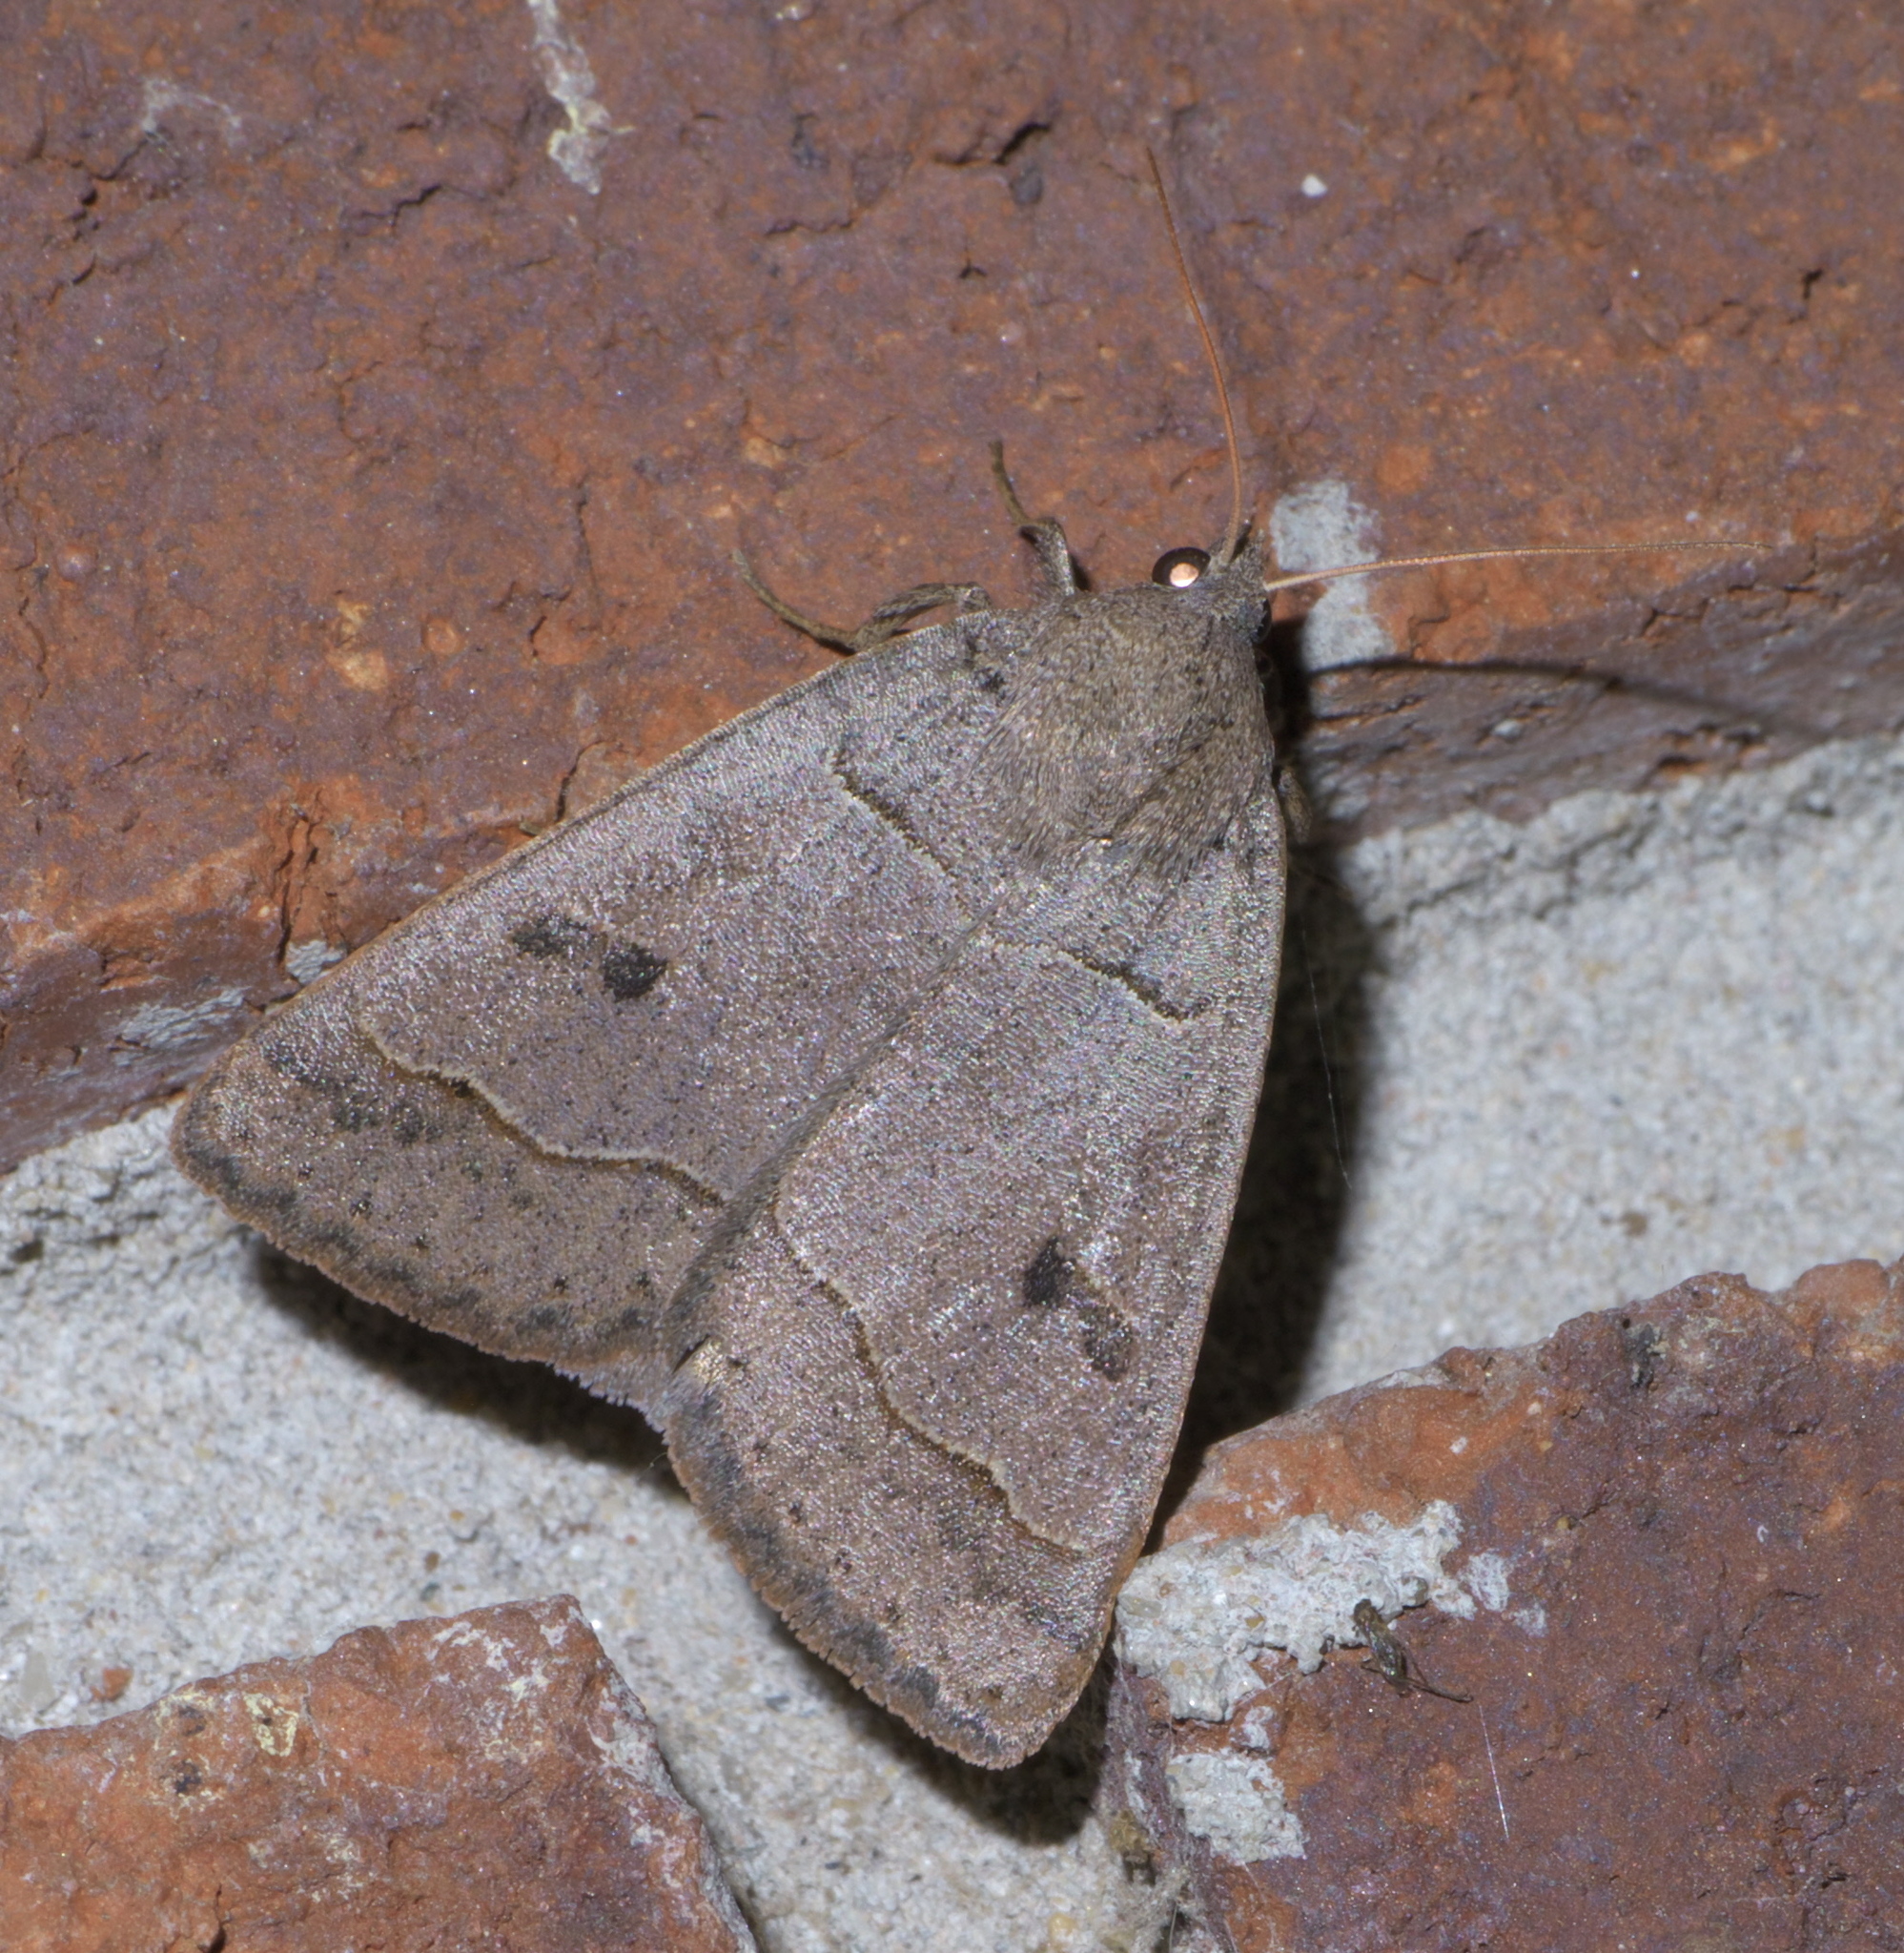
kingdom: Animalia
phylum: Arthropoda
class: Insecta
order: Lepidoptera
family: Erebidae
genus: Phoberia
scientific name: Phoberia atomaris
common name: Common oak moth
